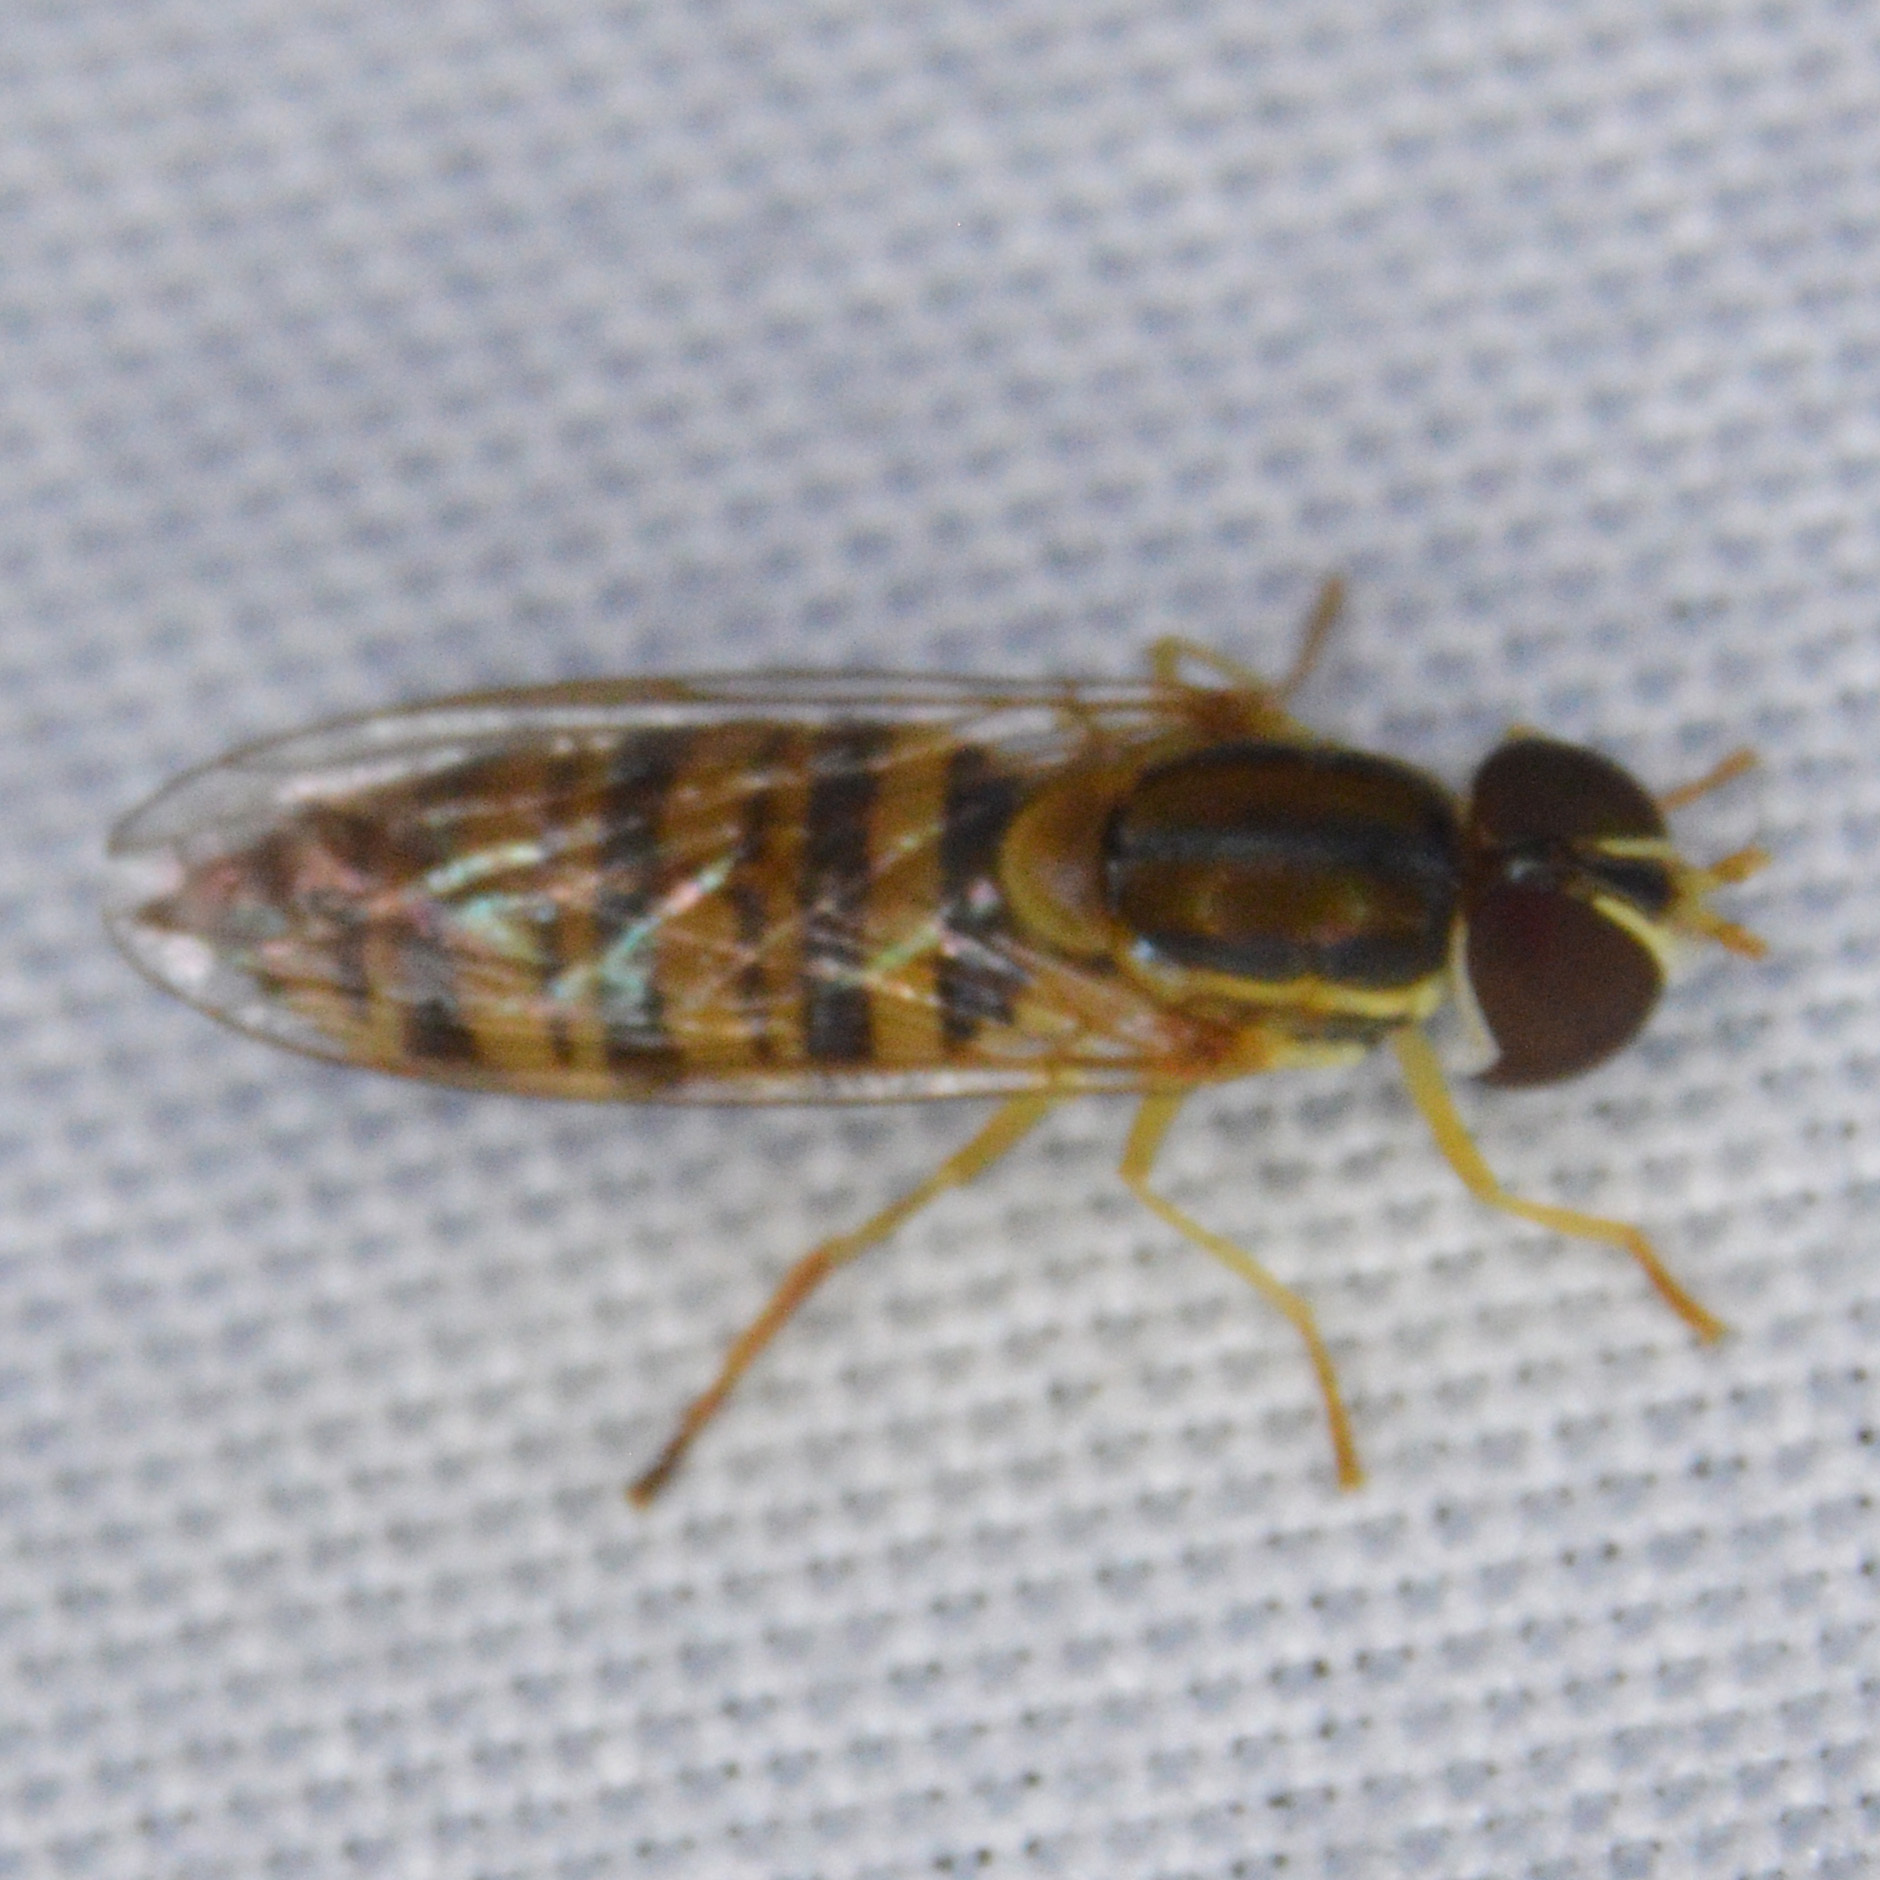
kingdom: Animalia
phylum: Arthropoda
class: Insecta
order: Diptera
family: Syrphidae
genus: Toxomerus
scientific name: Toxomerus politus
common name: Maize calligrapher
